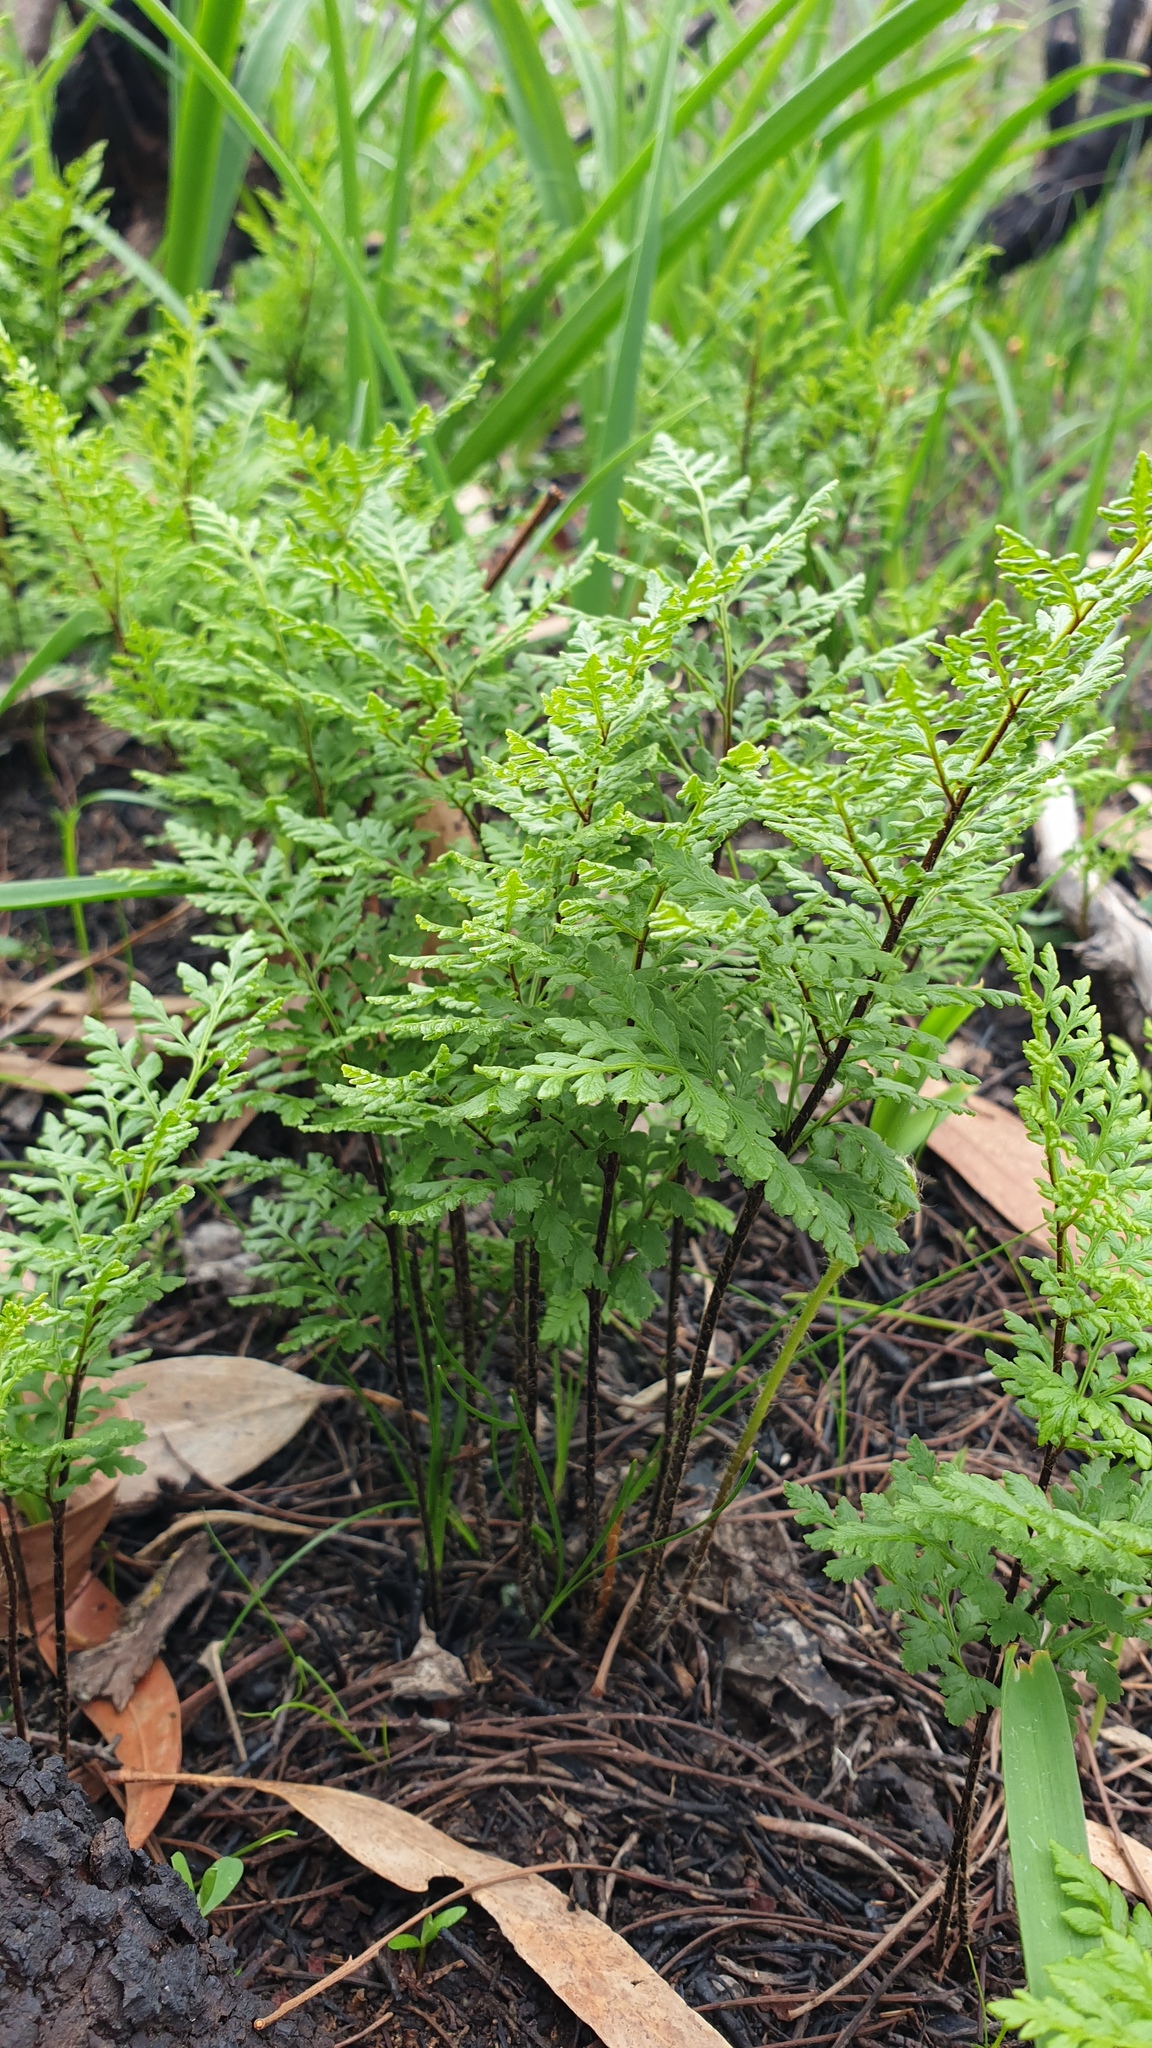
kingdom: Plantae
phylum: Tracheophyta
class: Polypodiopsida
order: Polypodiales
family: Pteridaceae
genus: Cheilanthes
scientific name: Cheilanthes austrotenuifolia
